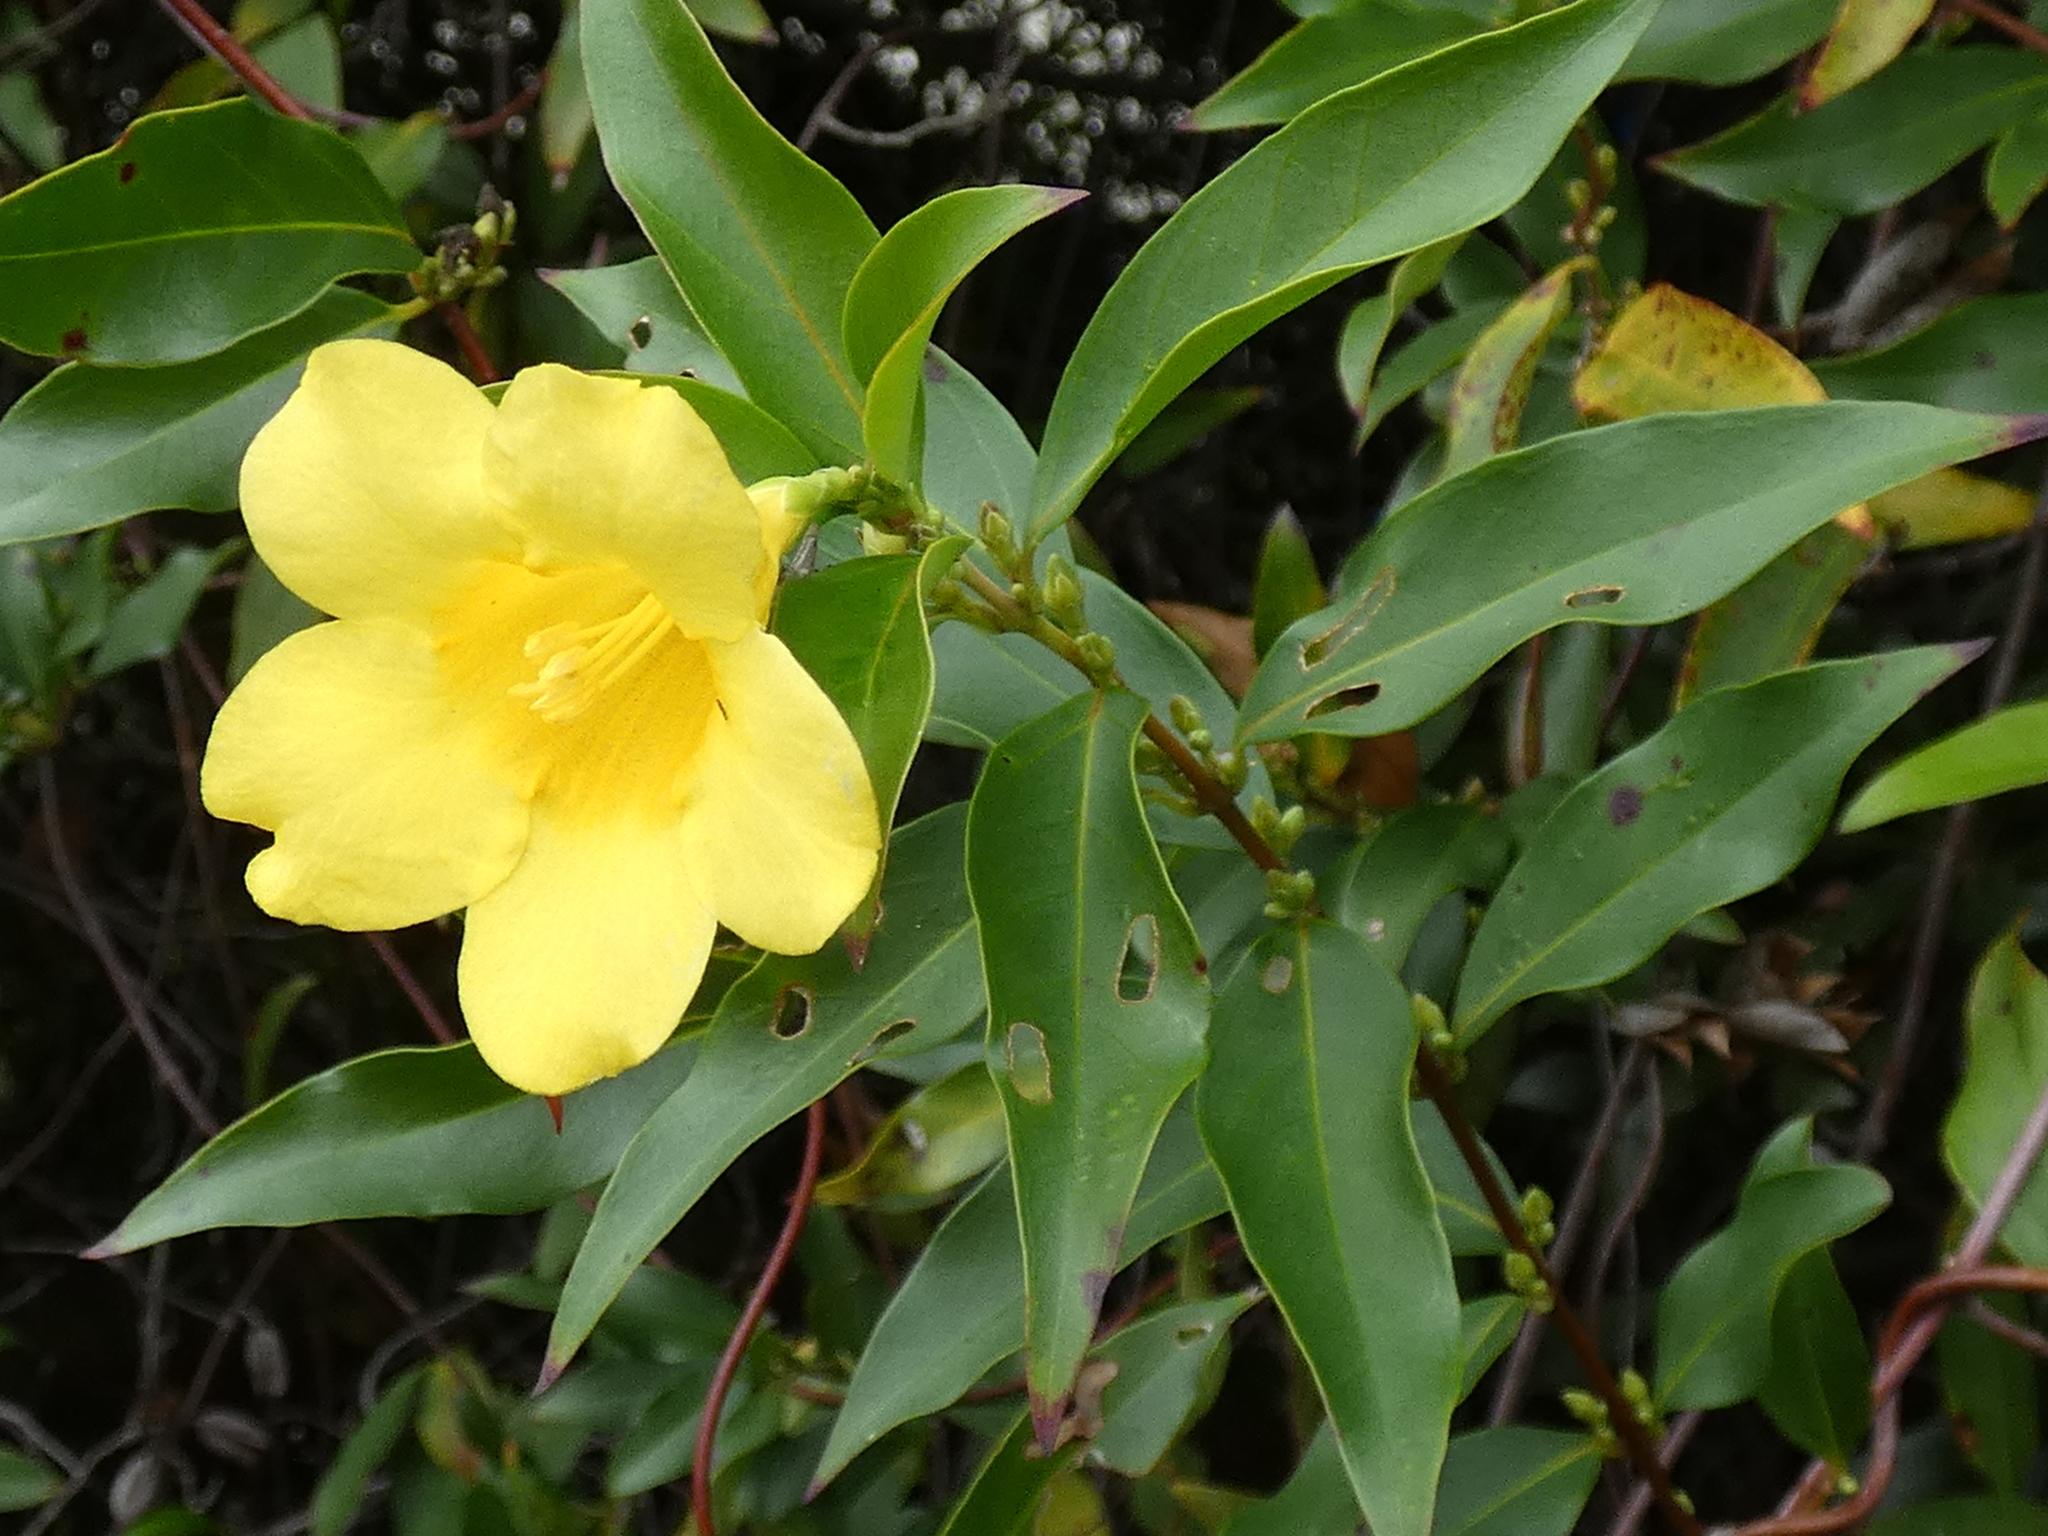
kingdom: Plantae
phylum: Tracheophyta
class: Magnoliopsida
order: Gentianales
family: Gelsemiaceae
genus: Gelsemium
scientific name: Gelsemium sempervirens
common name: Carolina-jasmine
